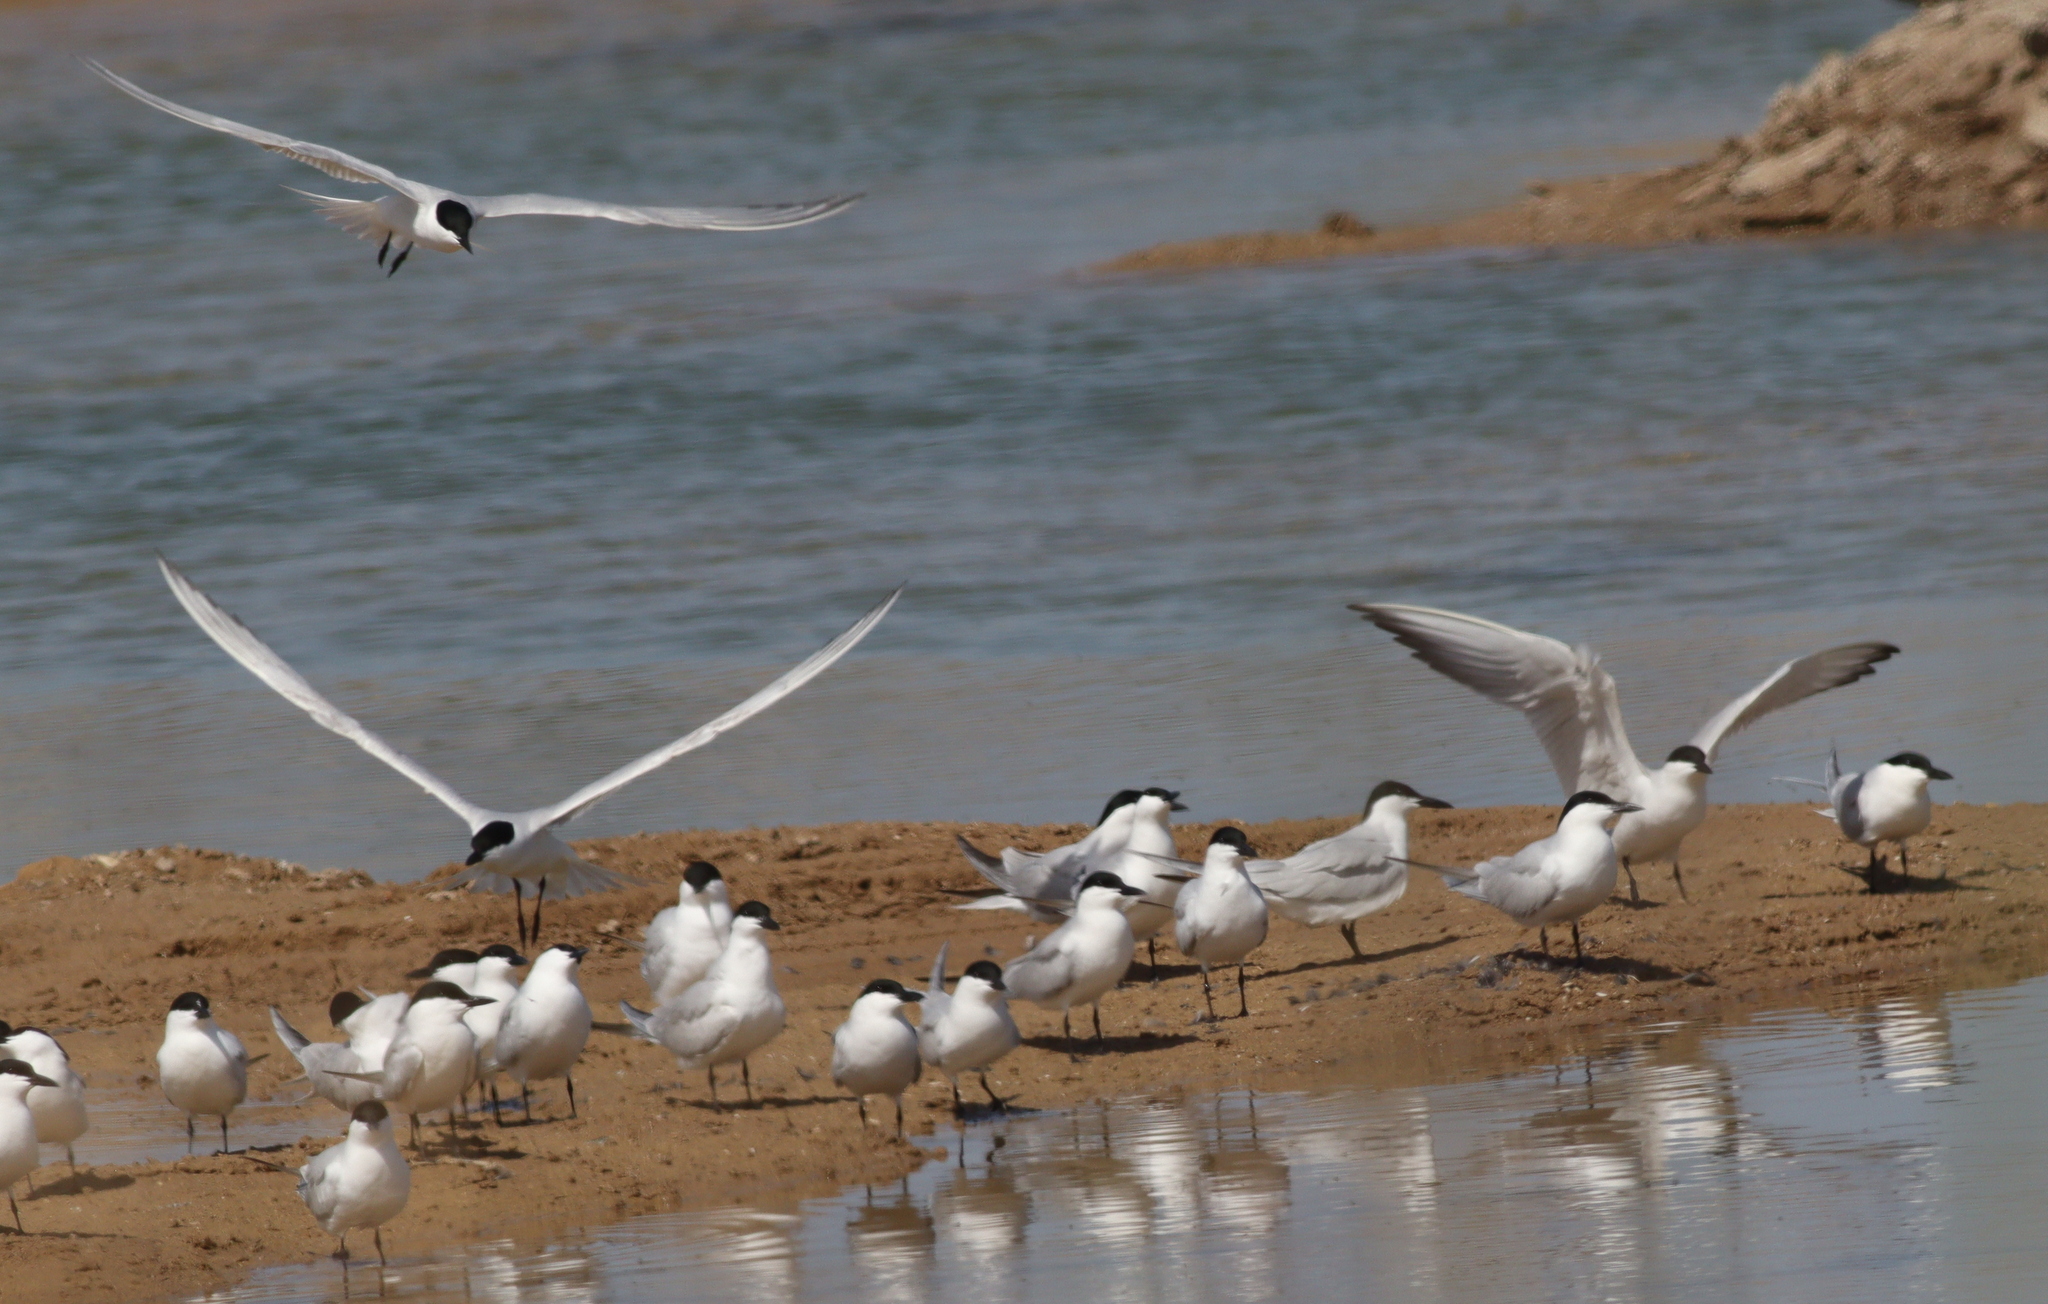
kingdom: Animalia
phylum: Chordata
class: Aves
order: Charadriiformes
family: Laridae
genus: Gelochelidon
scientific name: Gelochelidon nilotica
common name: Gull-billed tern
